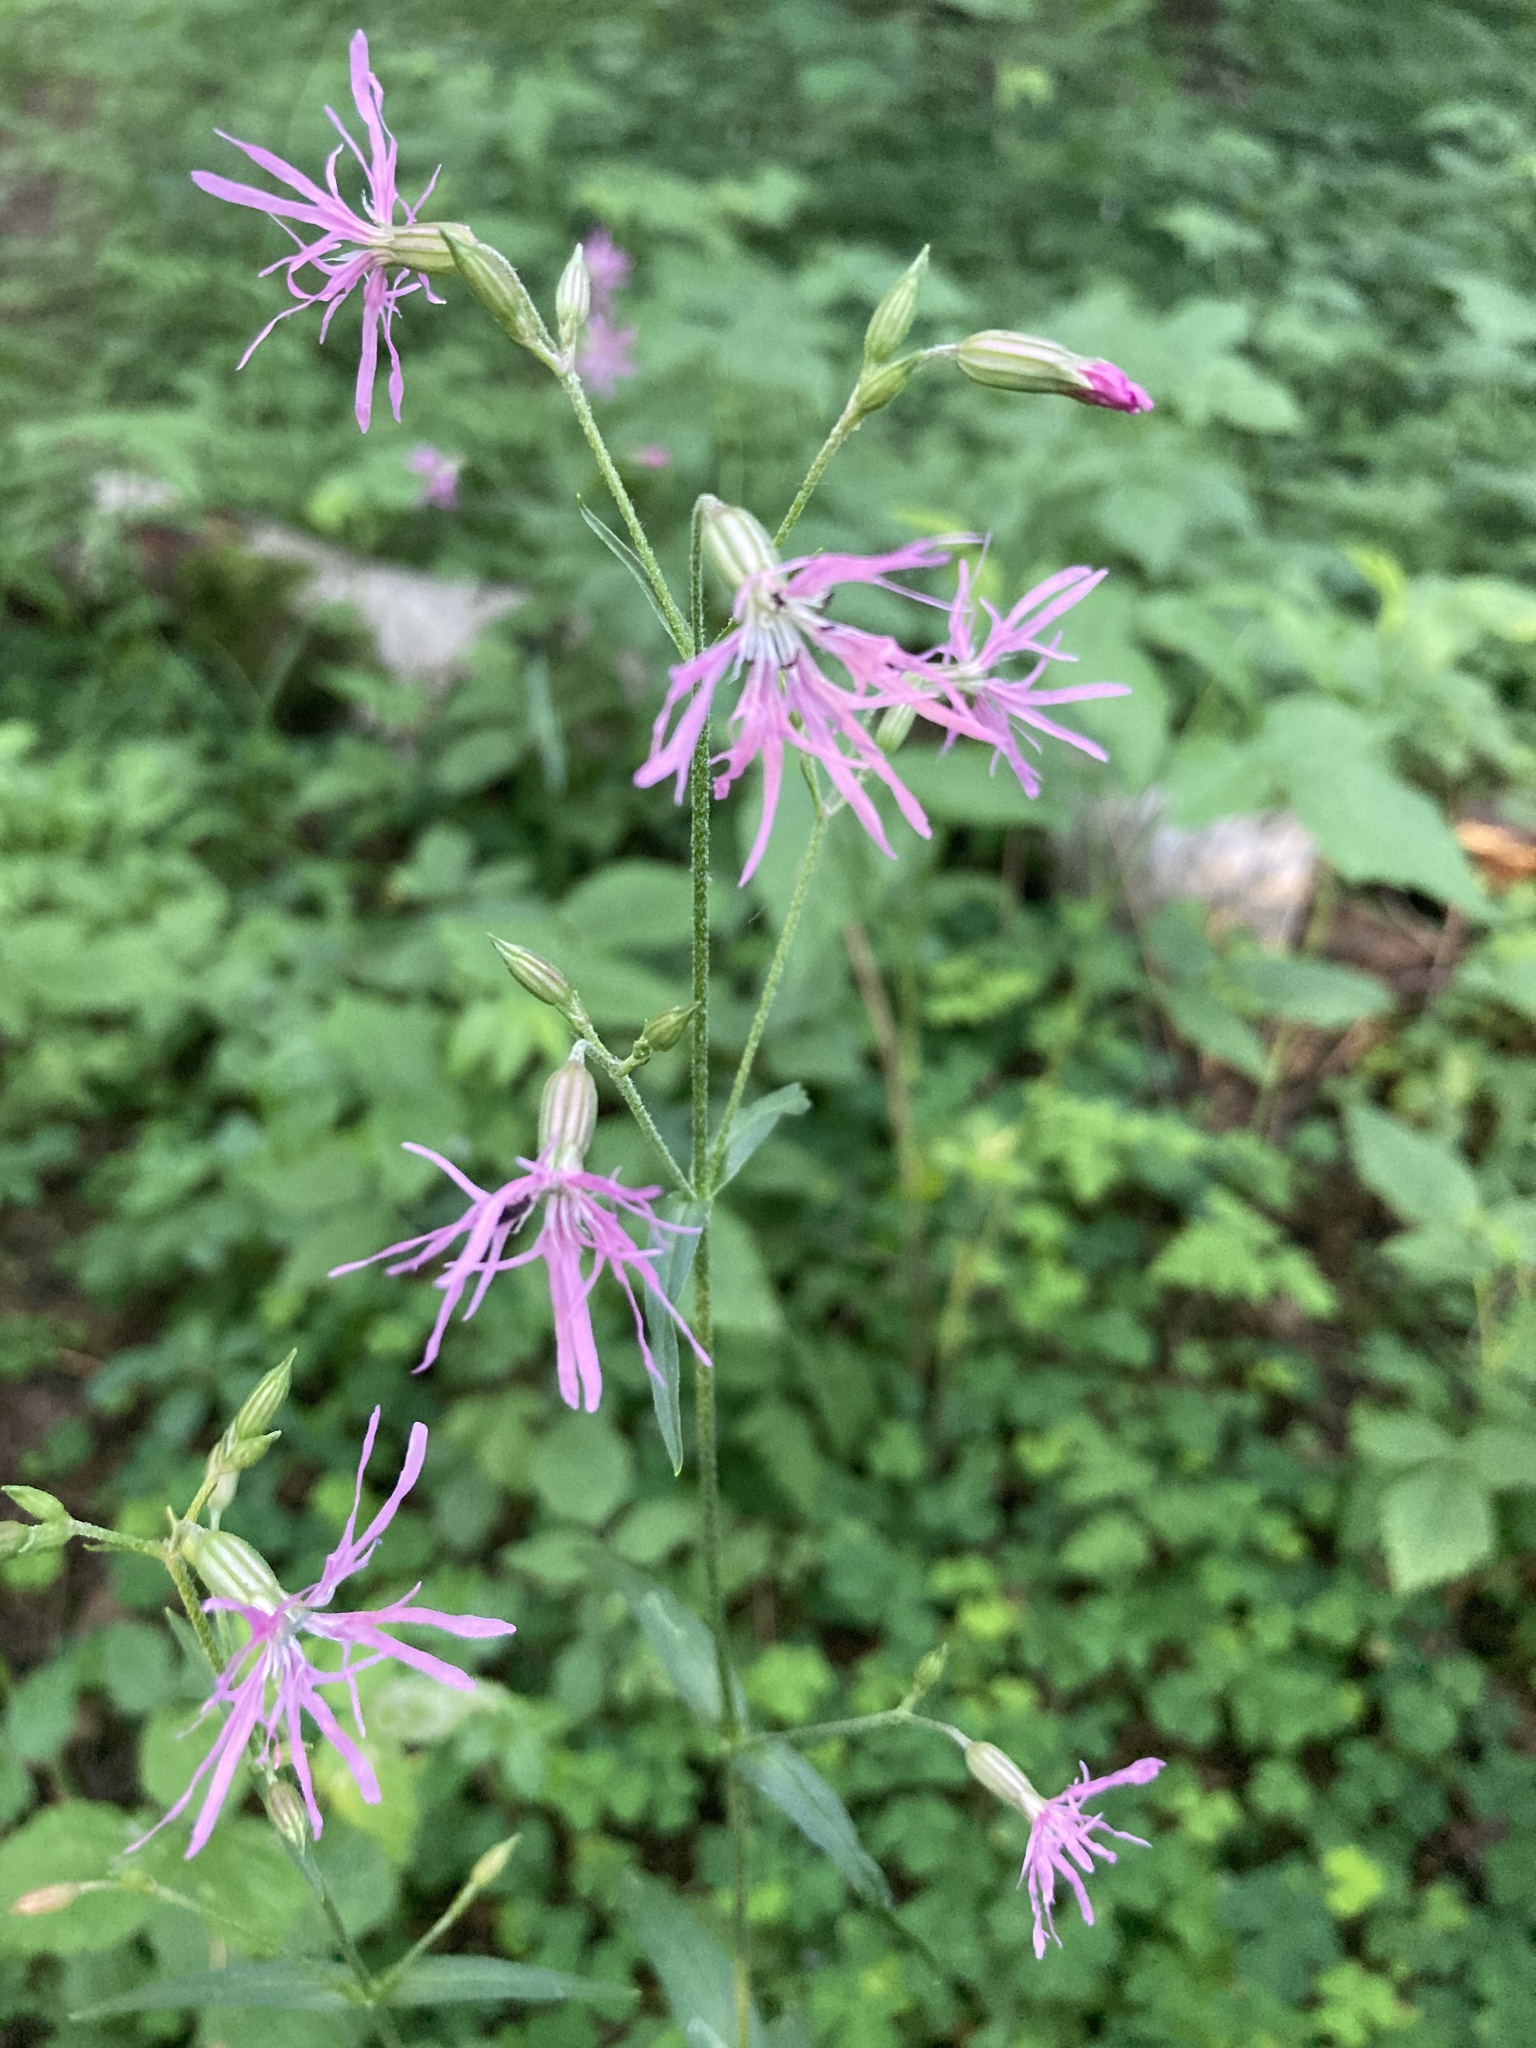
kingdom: Plantae
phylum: Tracheophyta
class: Magnoliopsida
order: Caryophyllales
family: Caryophyllaceae
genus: Silene
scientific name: Silene flos-cuculi
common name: Ragged-robin
